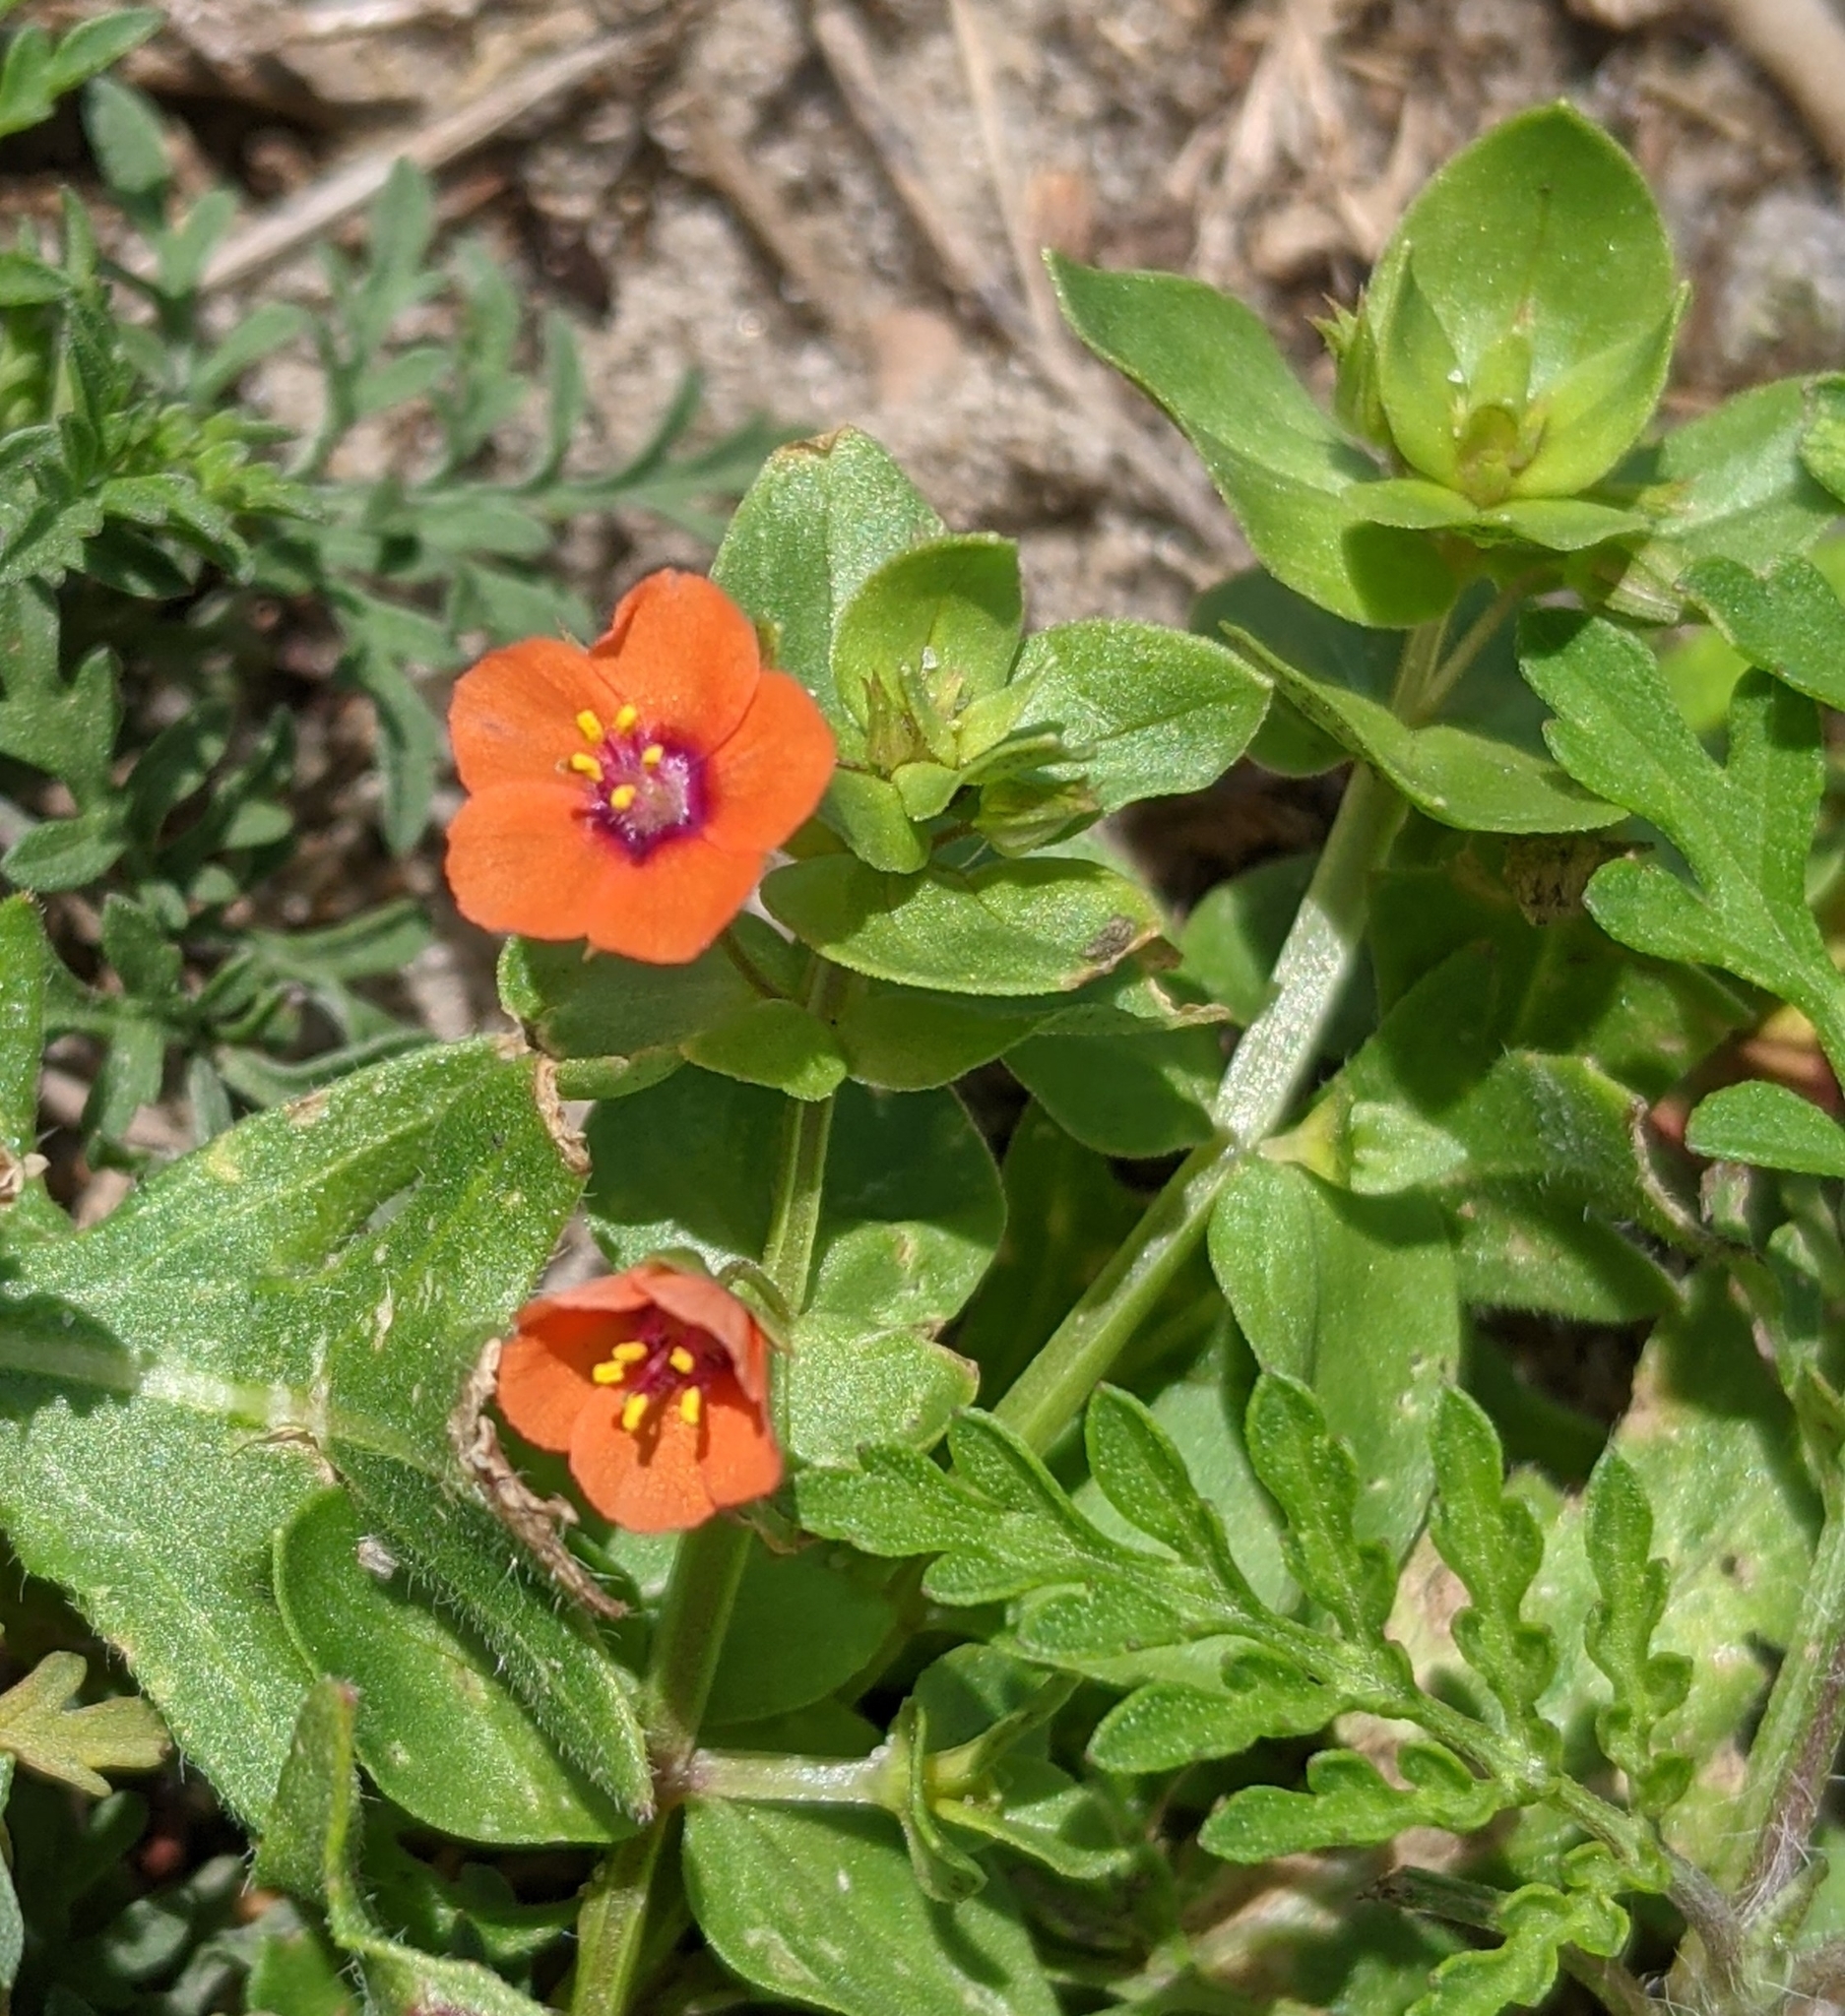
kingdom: Plantae
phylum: Tracheophyta
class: Magnoliopsida
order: Ericales
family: Primulaceae
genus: Lysimachia
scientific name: Lysimachia arvensis
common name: Scarlet pimpernel
